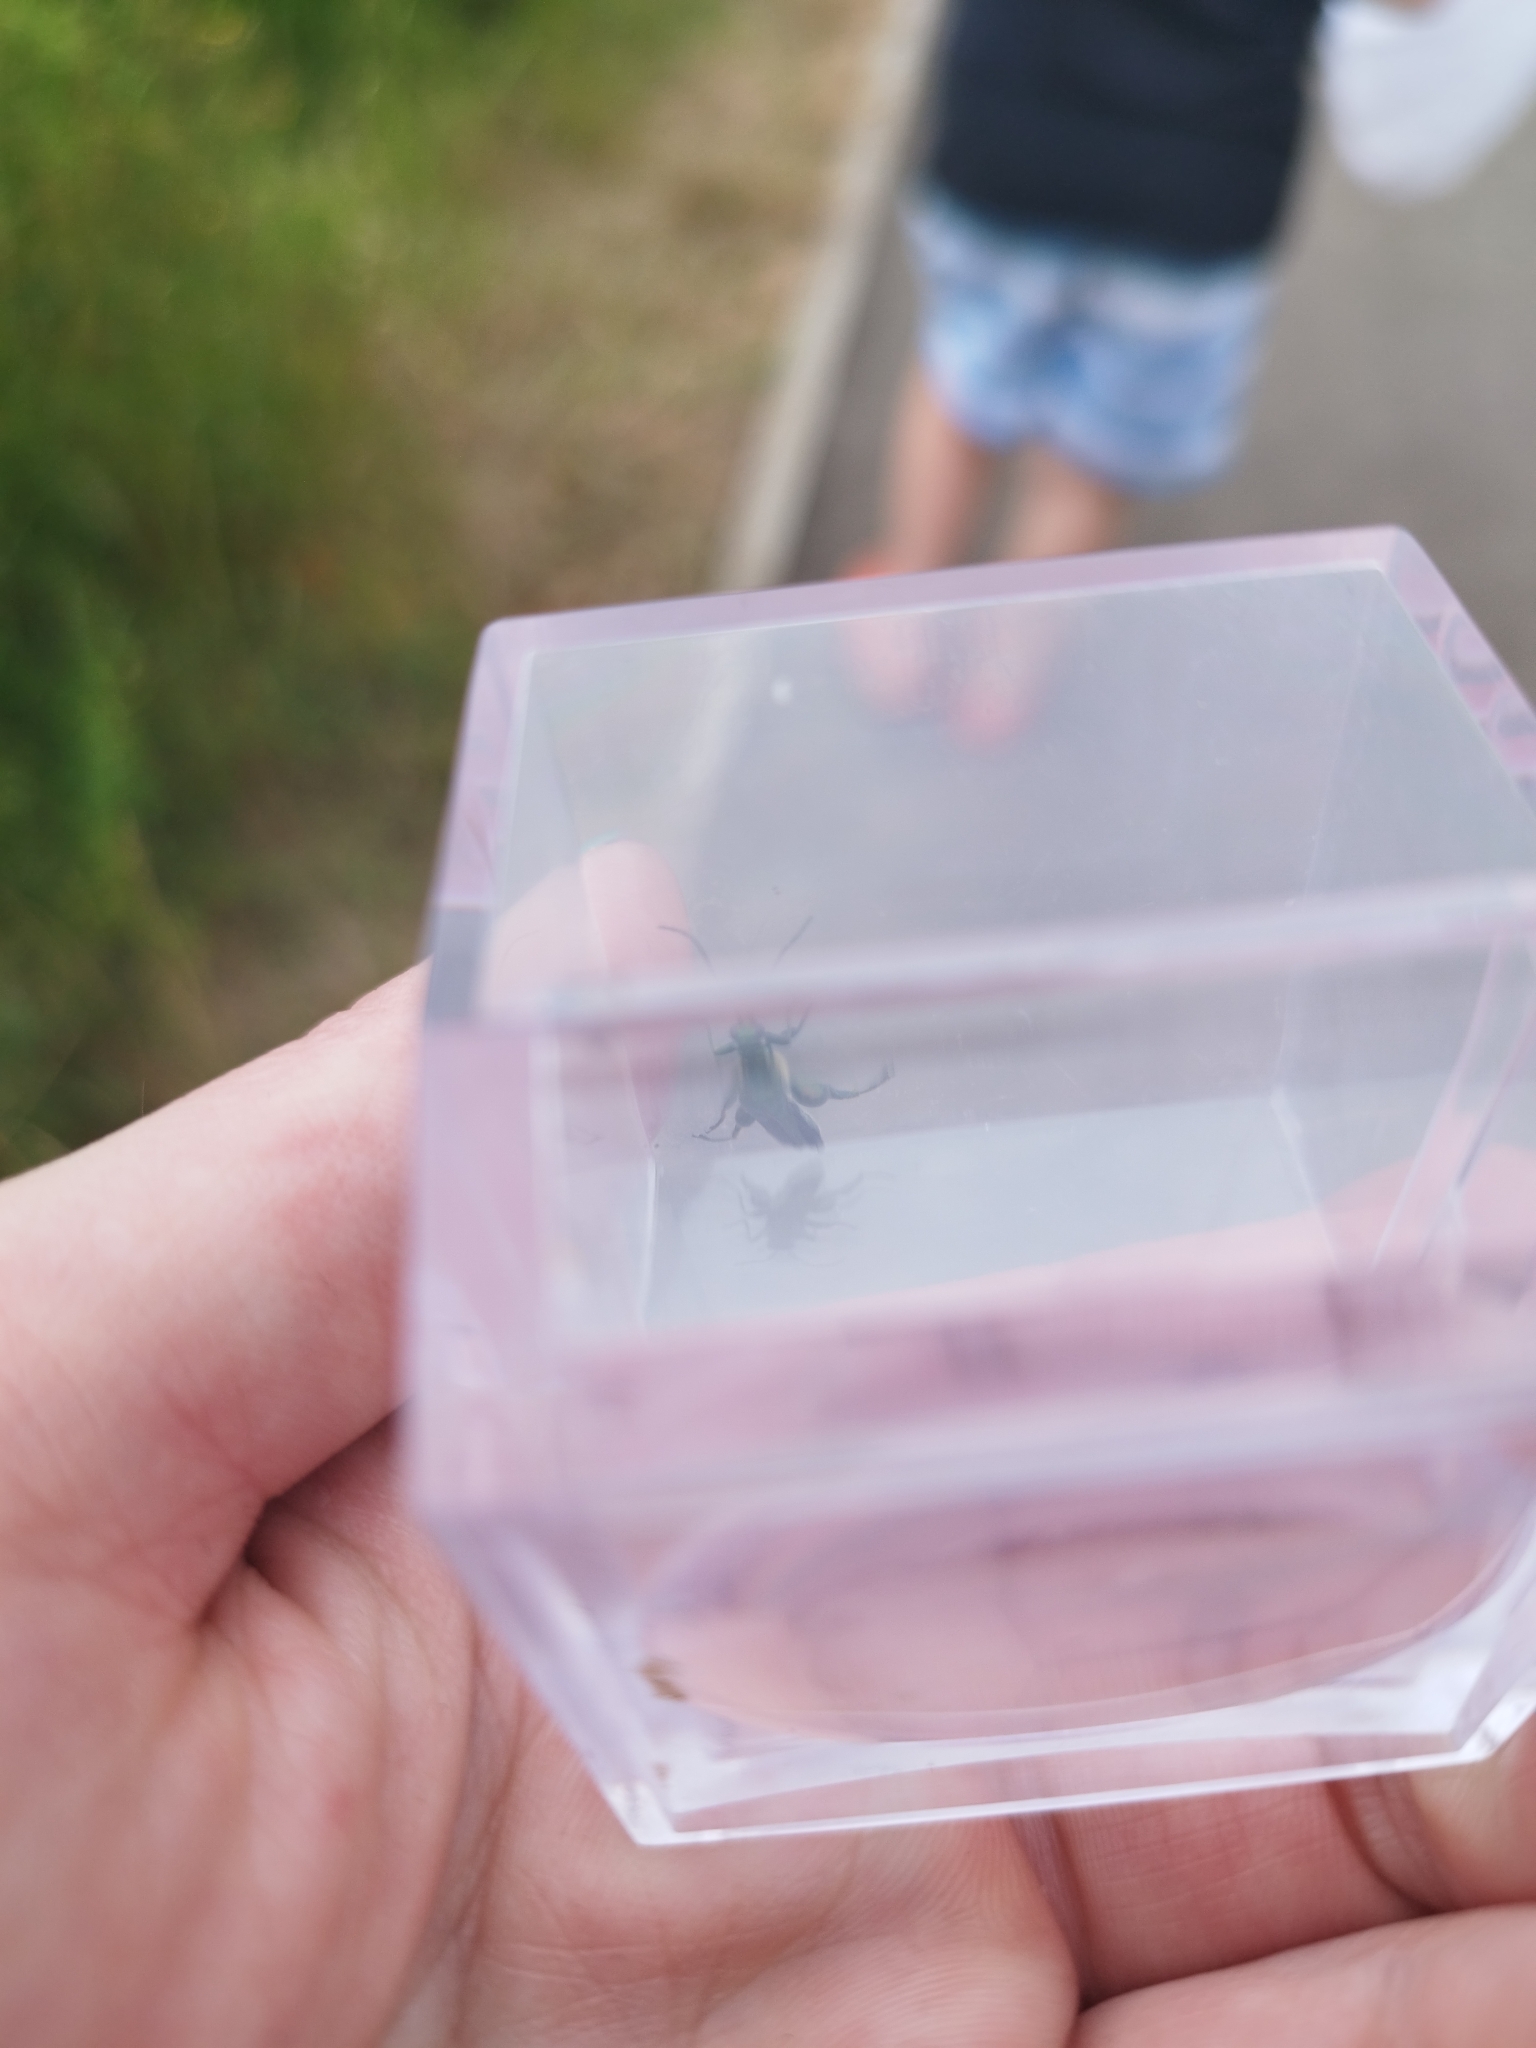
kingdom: Animalia
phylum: Arthropoda
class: Insecta
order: Coleoptera
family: Oedemeridae
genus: Oedemera
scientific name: Oedemera nobilis
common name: Swollen-thighed beetle
